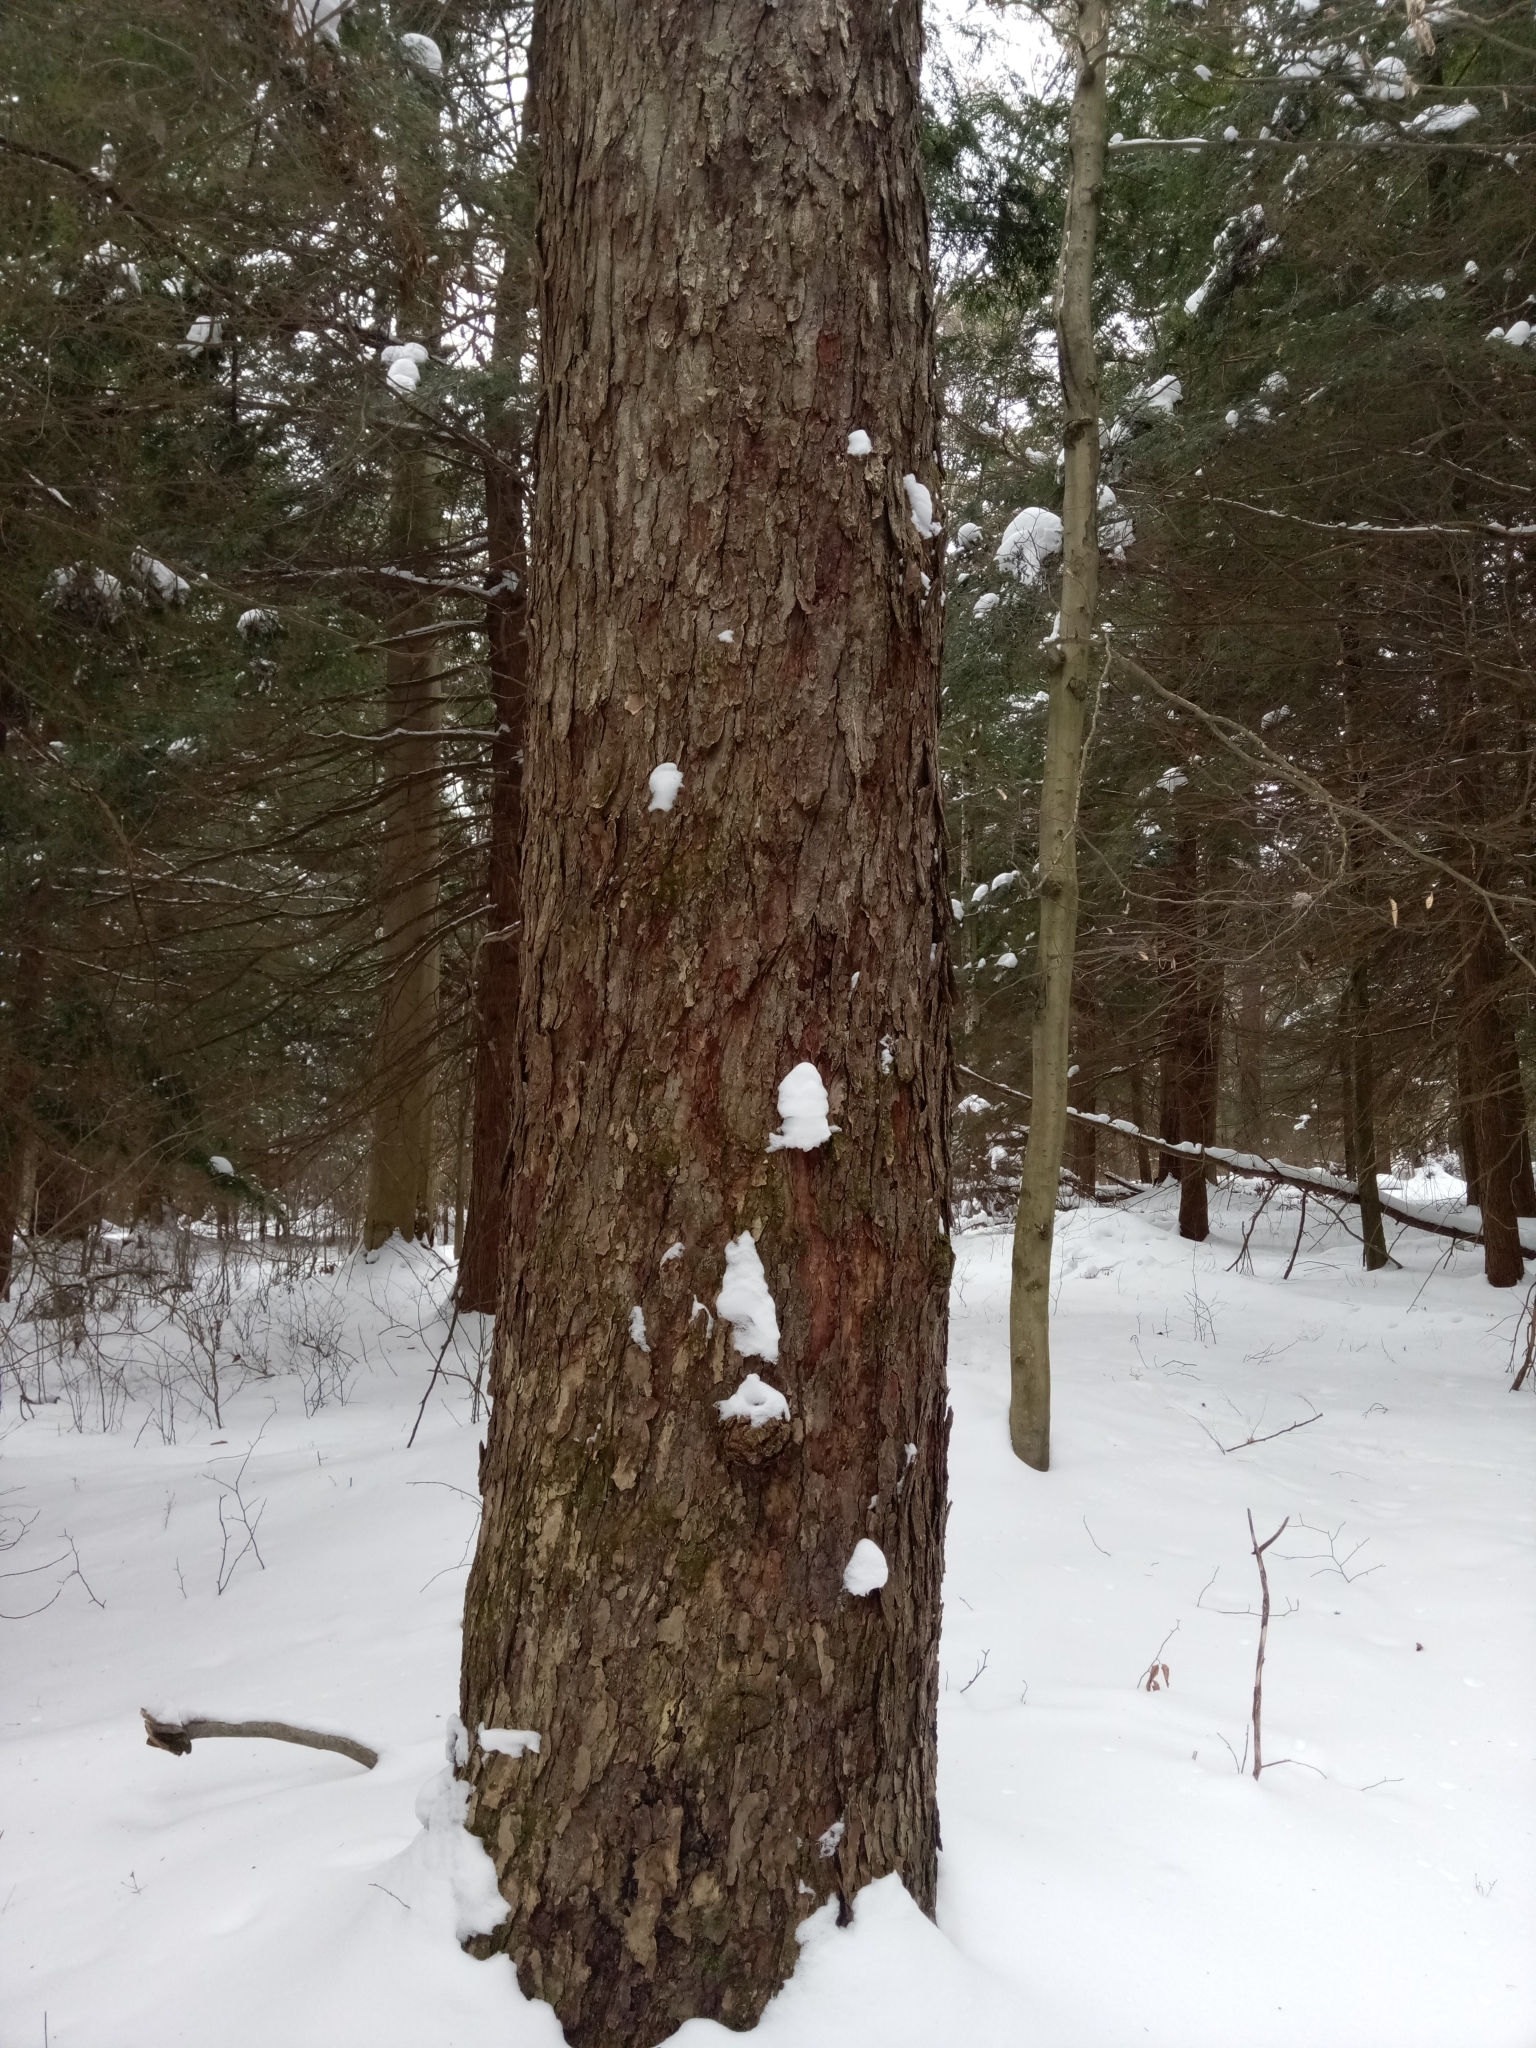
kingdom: Plantae
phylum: Tracheophyta
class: Magnoliopsida
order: Sapindales
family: Sapindaceae
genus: Acer
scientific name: Acer rubrum
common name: Red maple
